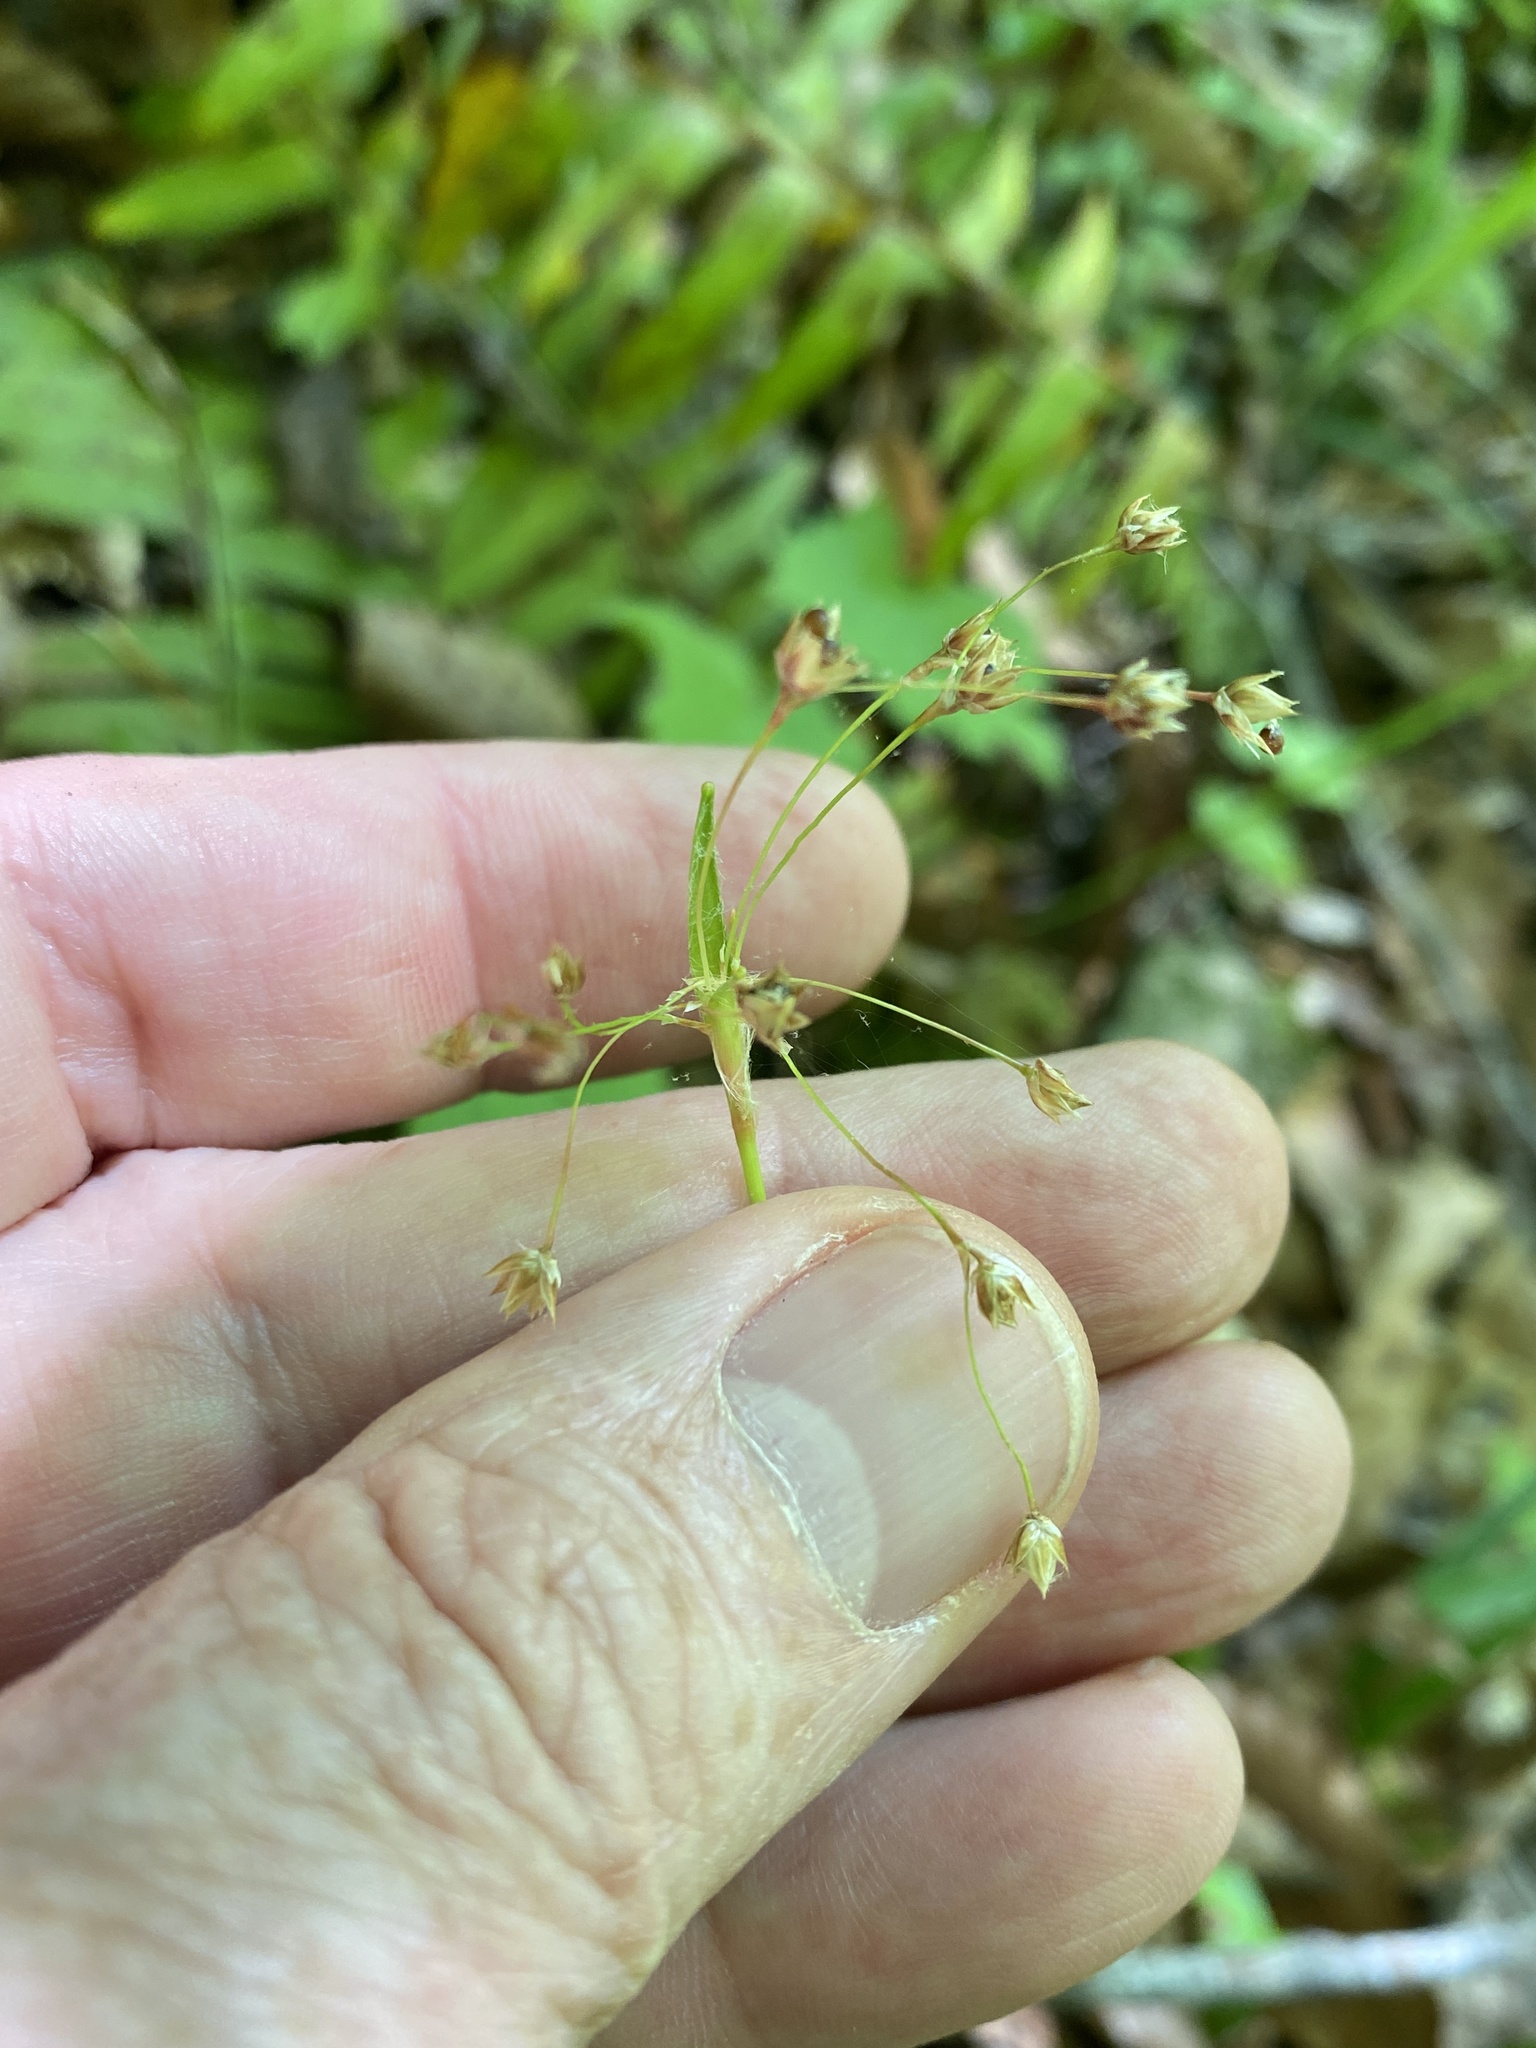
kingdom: Plantae
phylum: Tracheophyta
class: Liliopsida
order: Poales
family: Juncaceae
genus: Luzula
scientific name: Luzula acuminata
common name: Hairy woodrush
